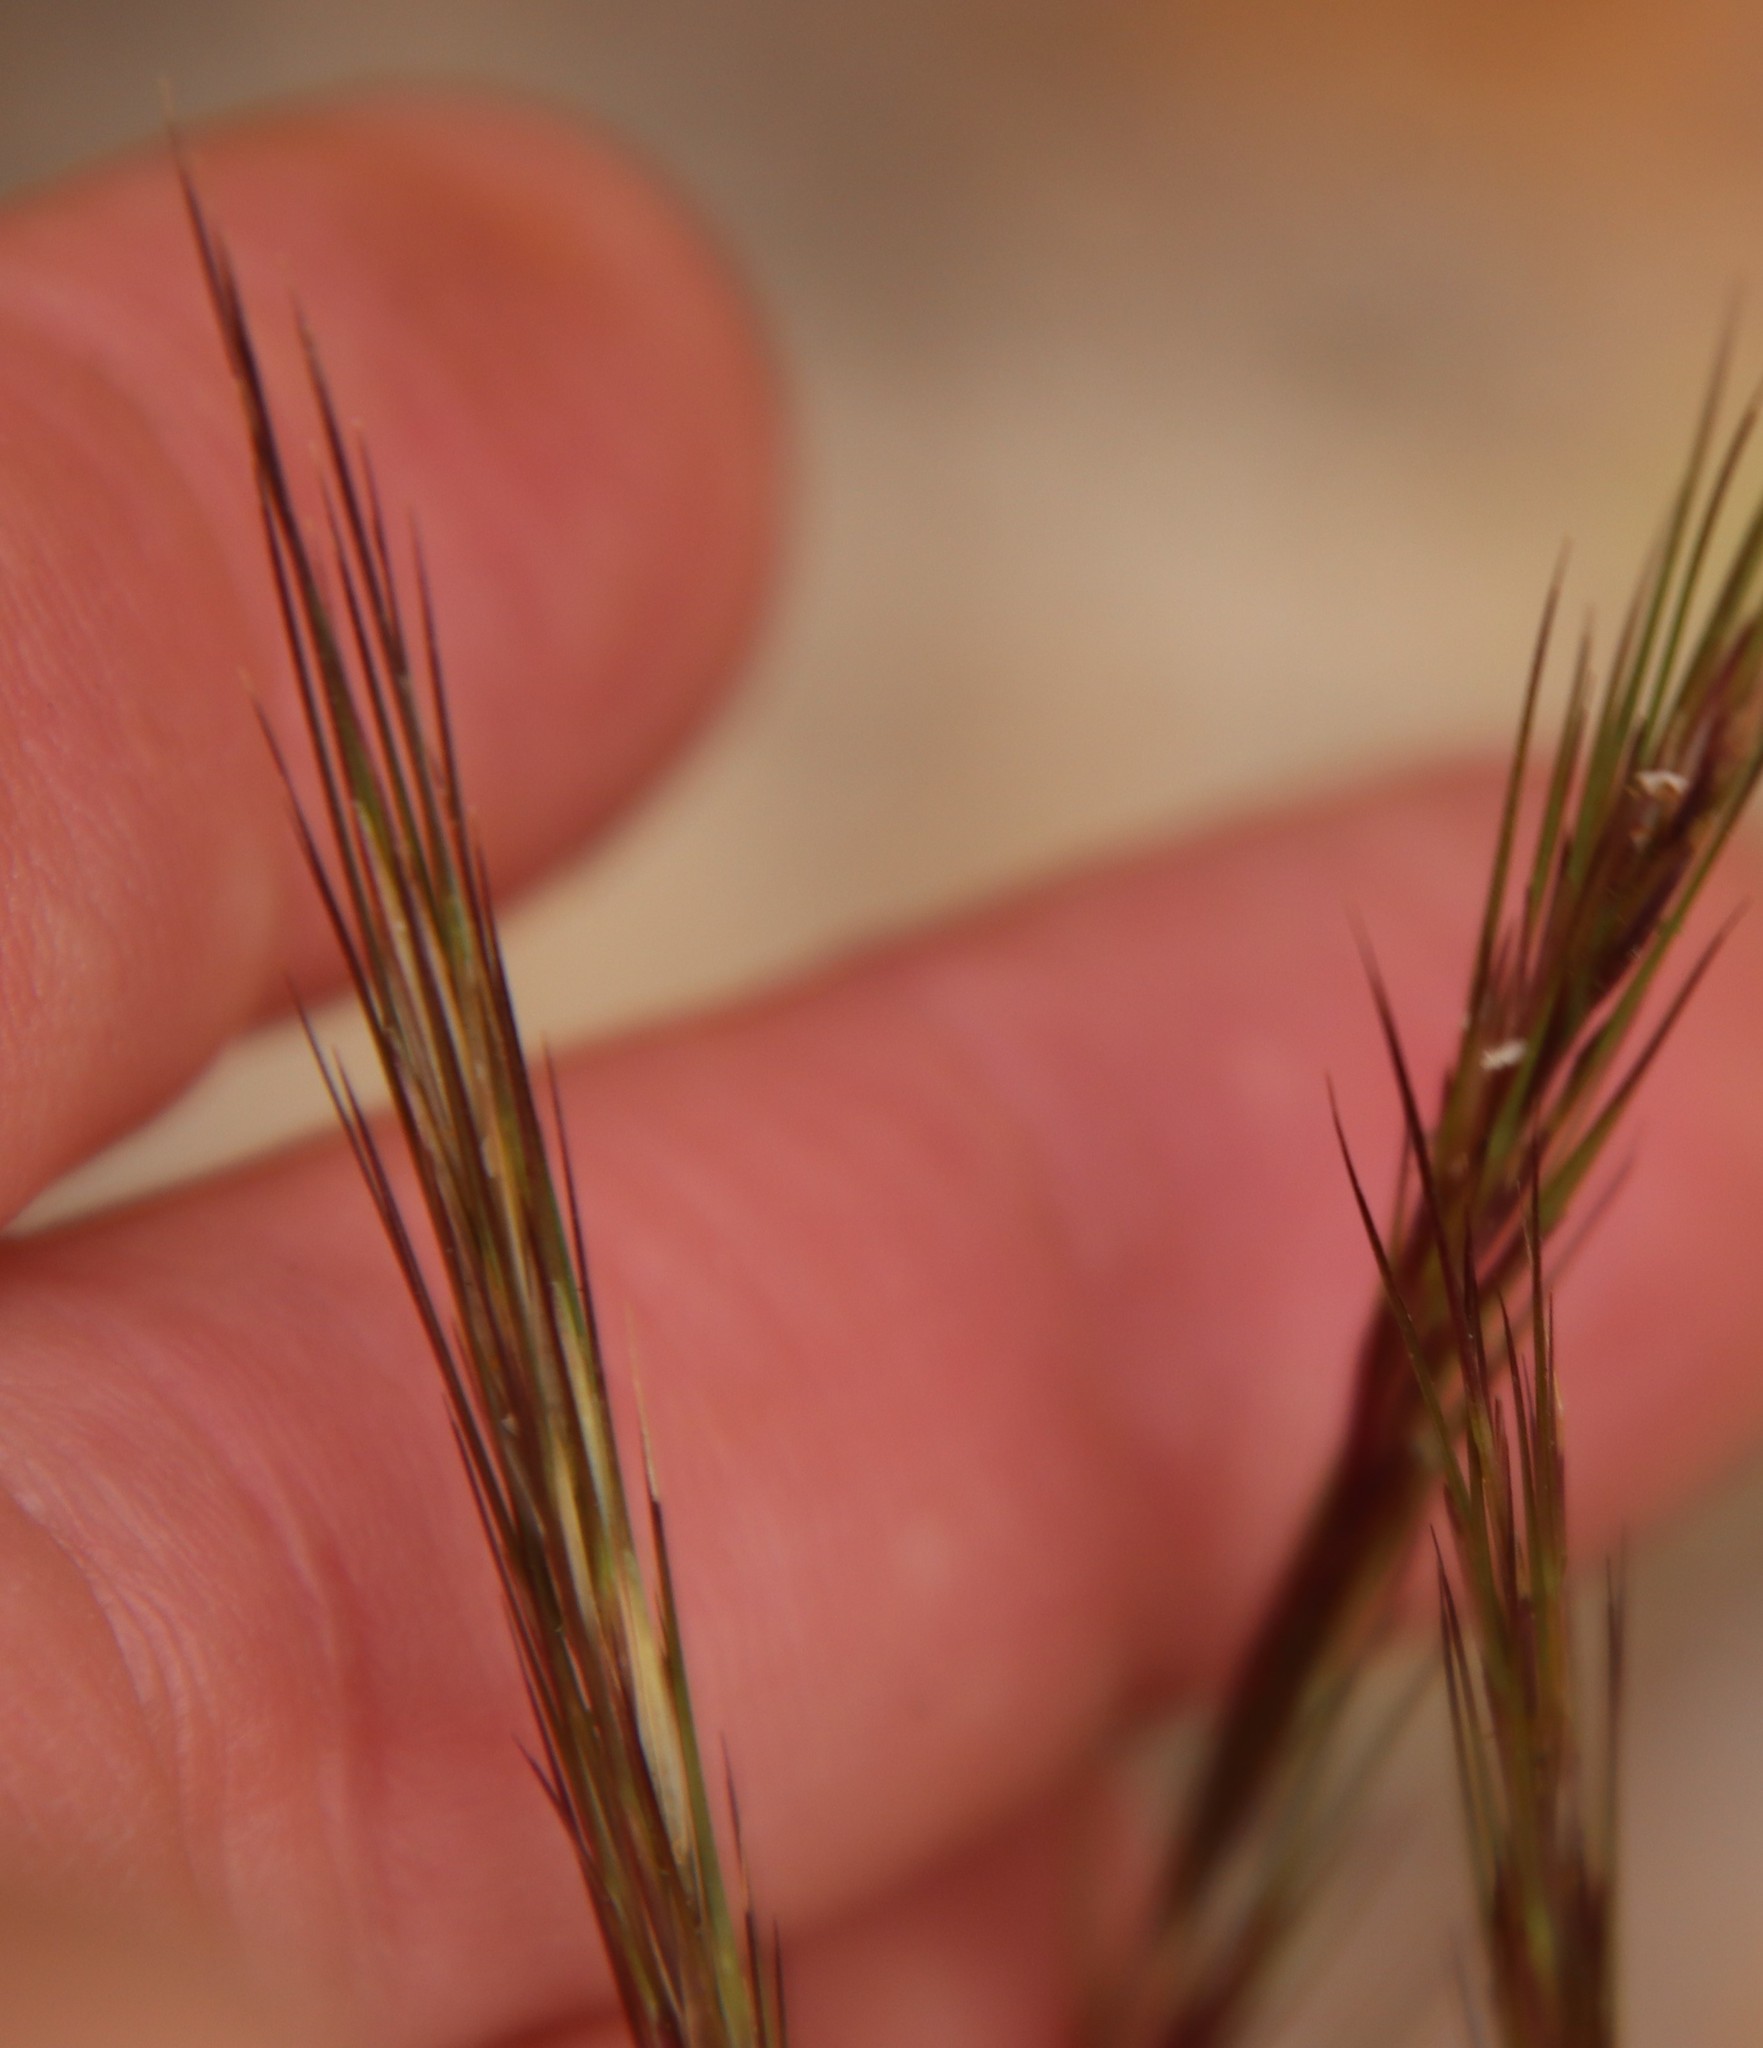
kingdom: Plantae
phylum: Tracheophyta
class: Liliopsida
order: Poales
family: Poaceae
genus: Aristida
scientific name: Aristida adscensionis
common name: Sixweeks threeawn
